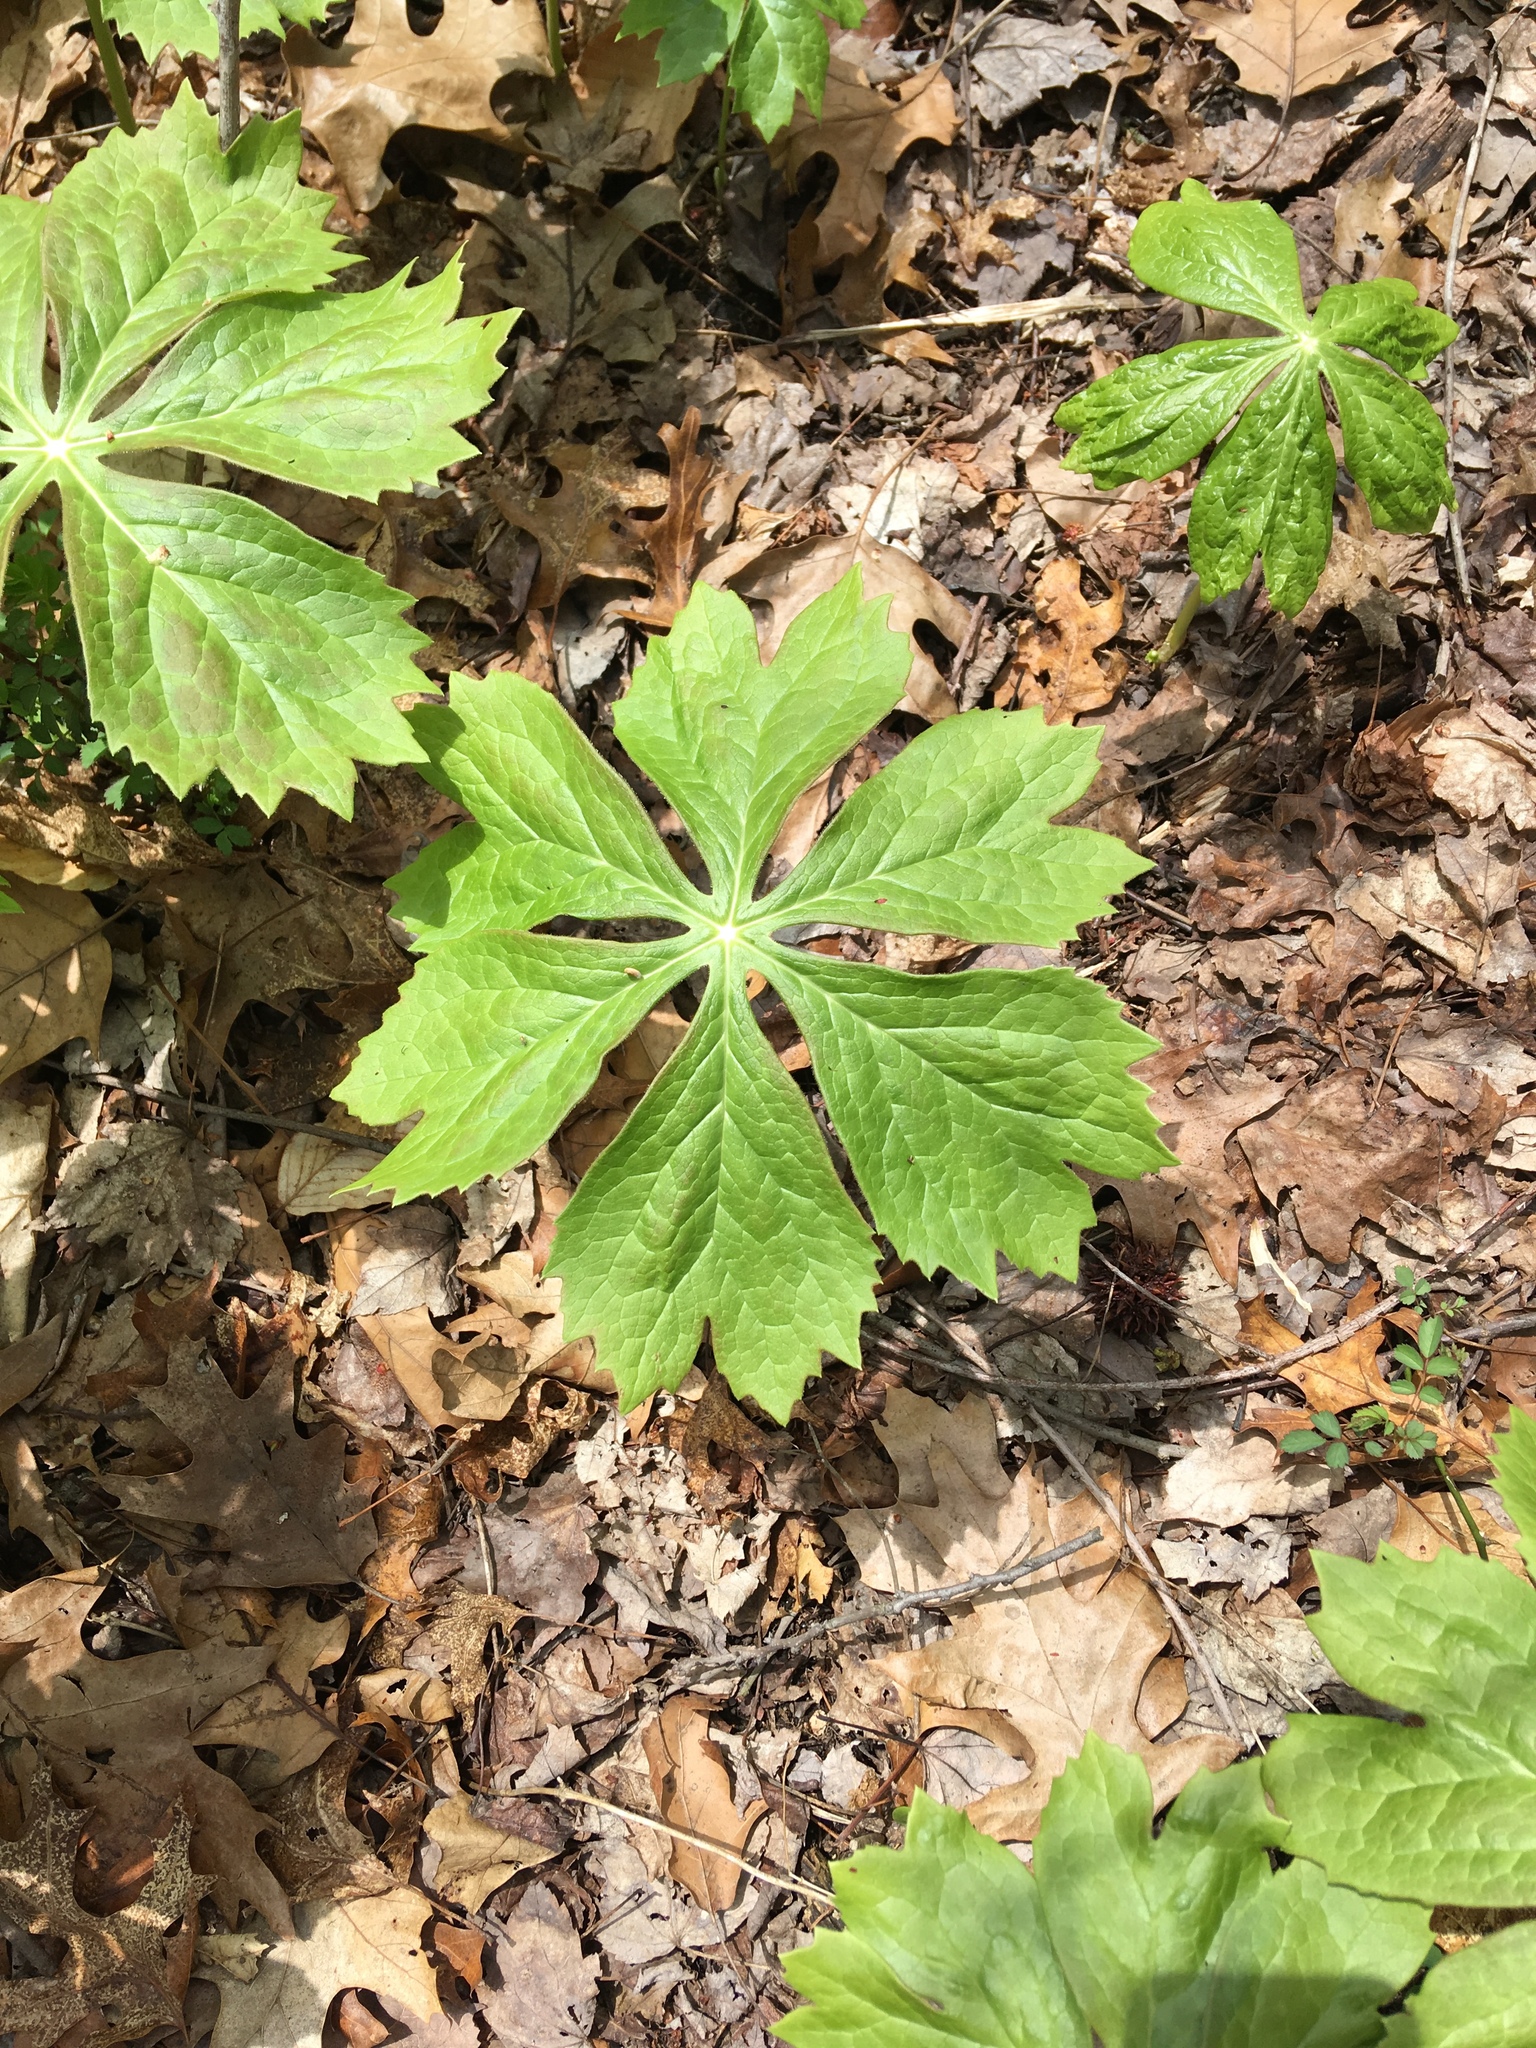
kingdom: Plantae
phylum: Tracheophyta
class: Magnoliopsida
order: Ranunculales
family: Berberidaceae
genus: Podophyllum
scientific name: Podophyllum peltatum
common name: Wild mandrake
